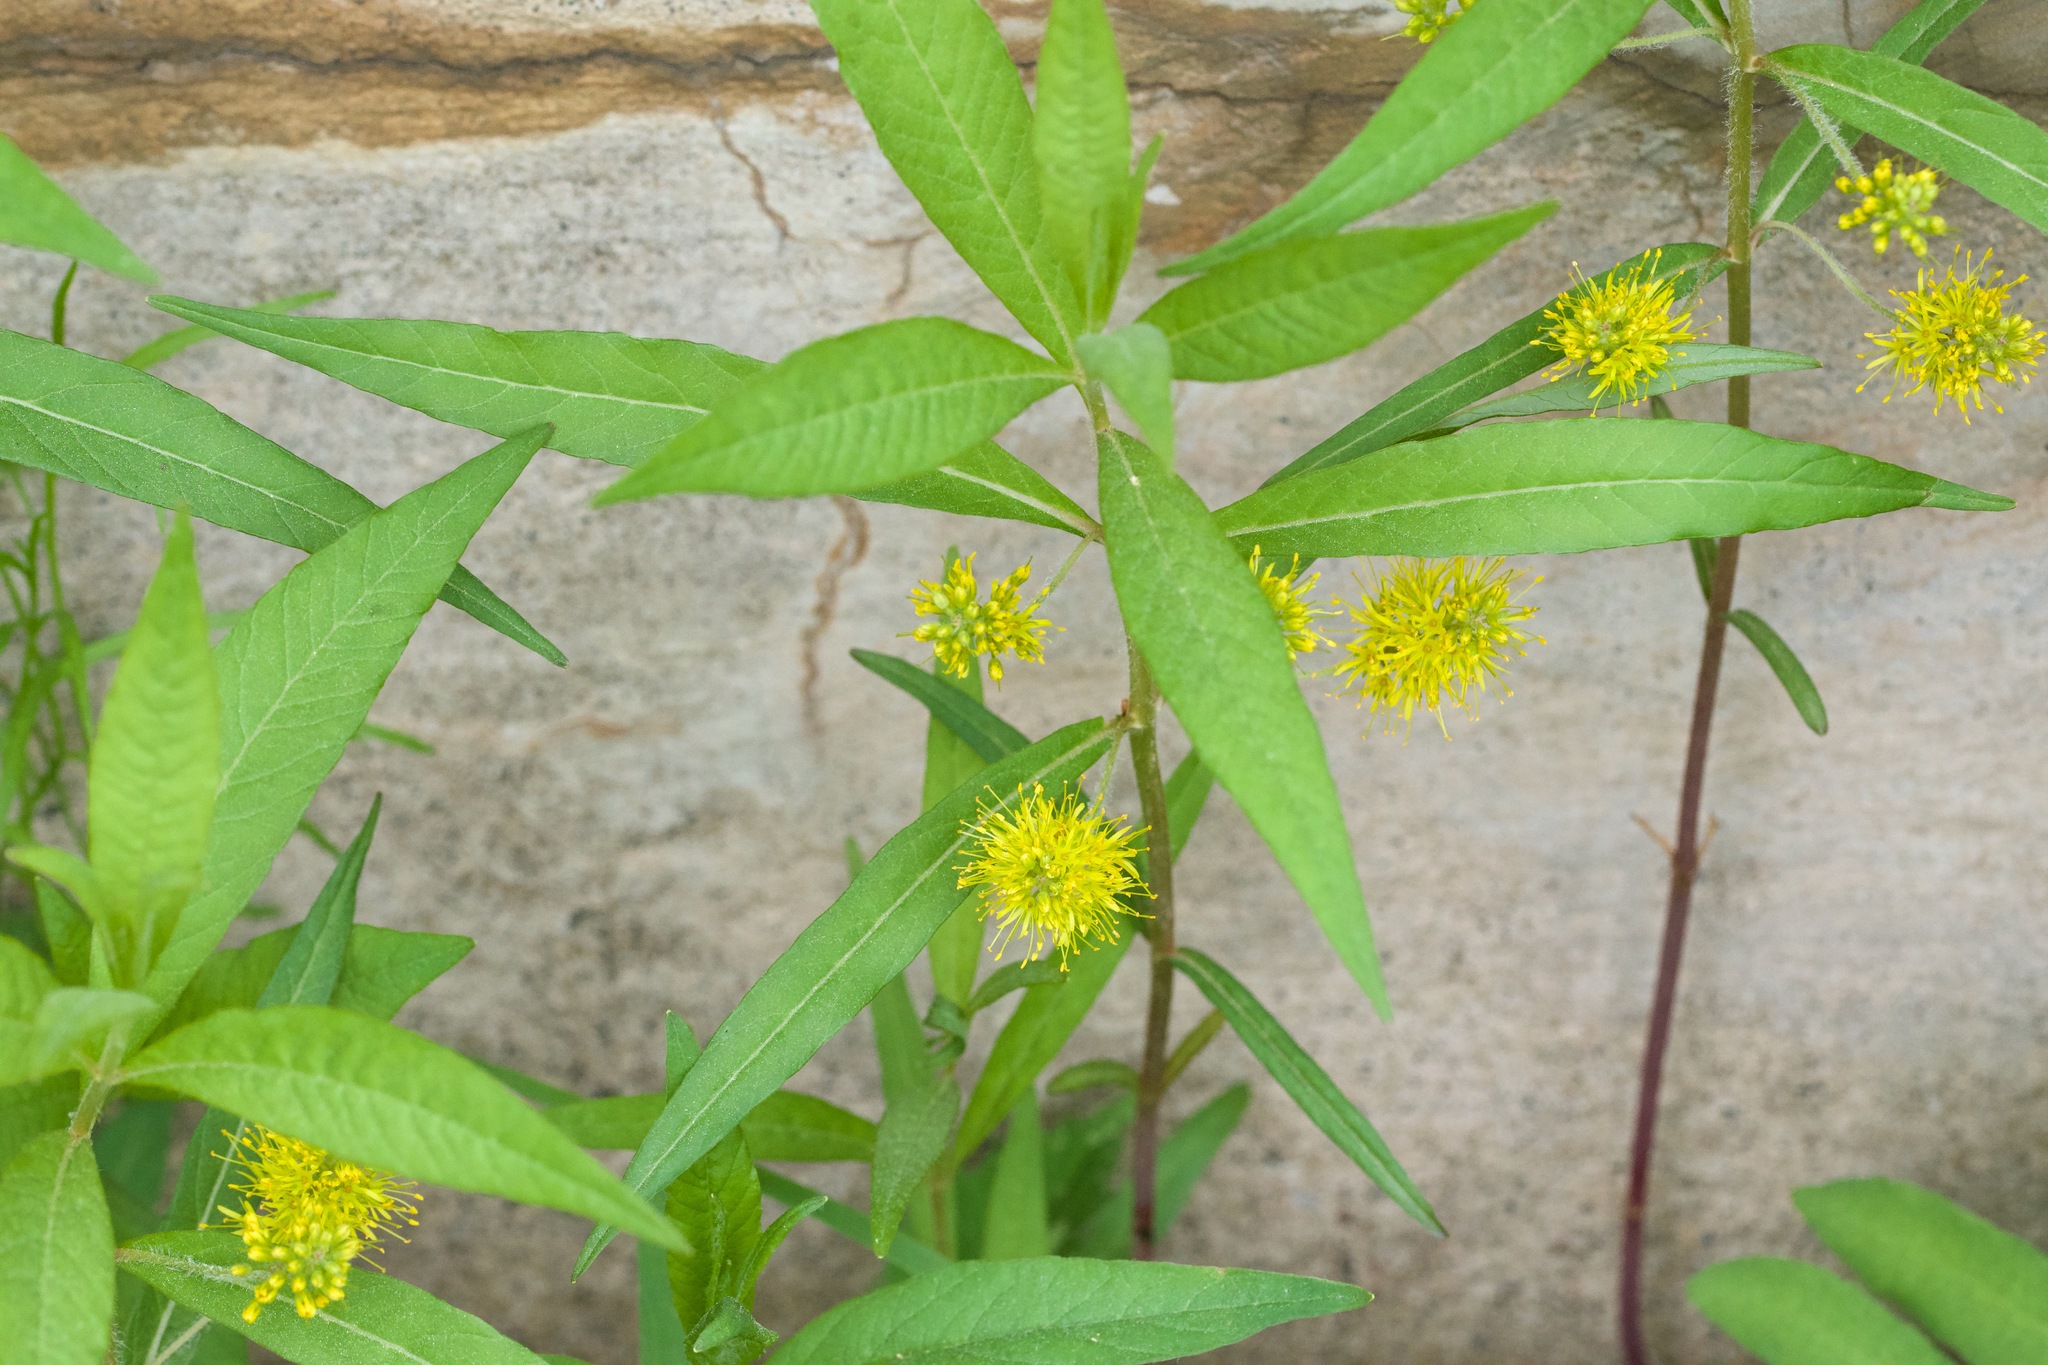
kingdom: Plantae
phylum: Tracheophyta
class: Magnoliopsida
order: Ericales
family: Primulaceae
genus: Lysimachia
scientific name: Lysimachia thyrsiflora
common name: Tufted loosestrife
